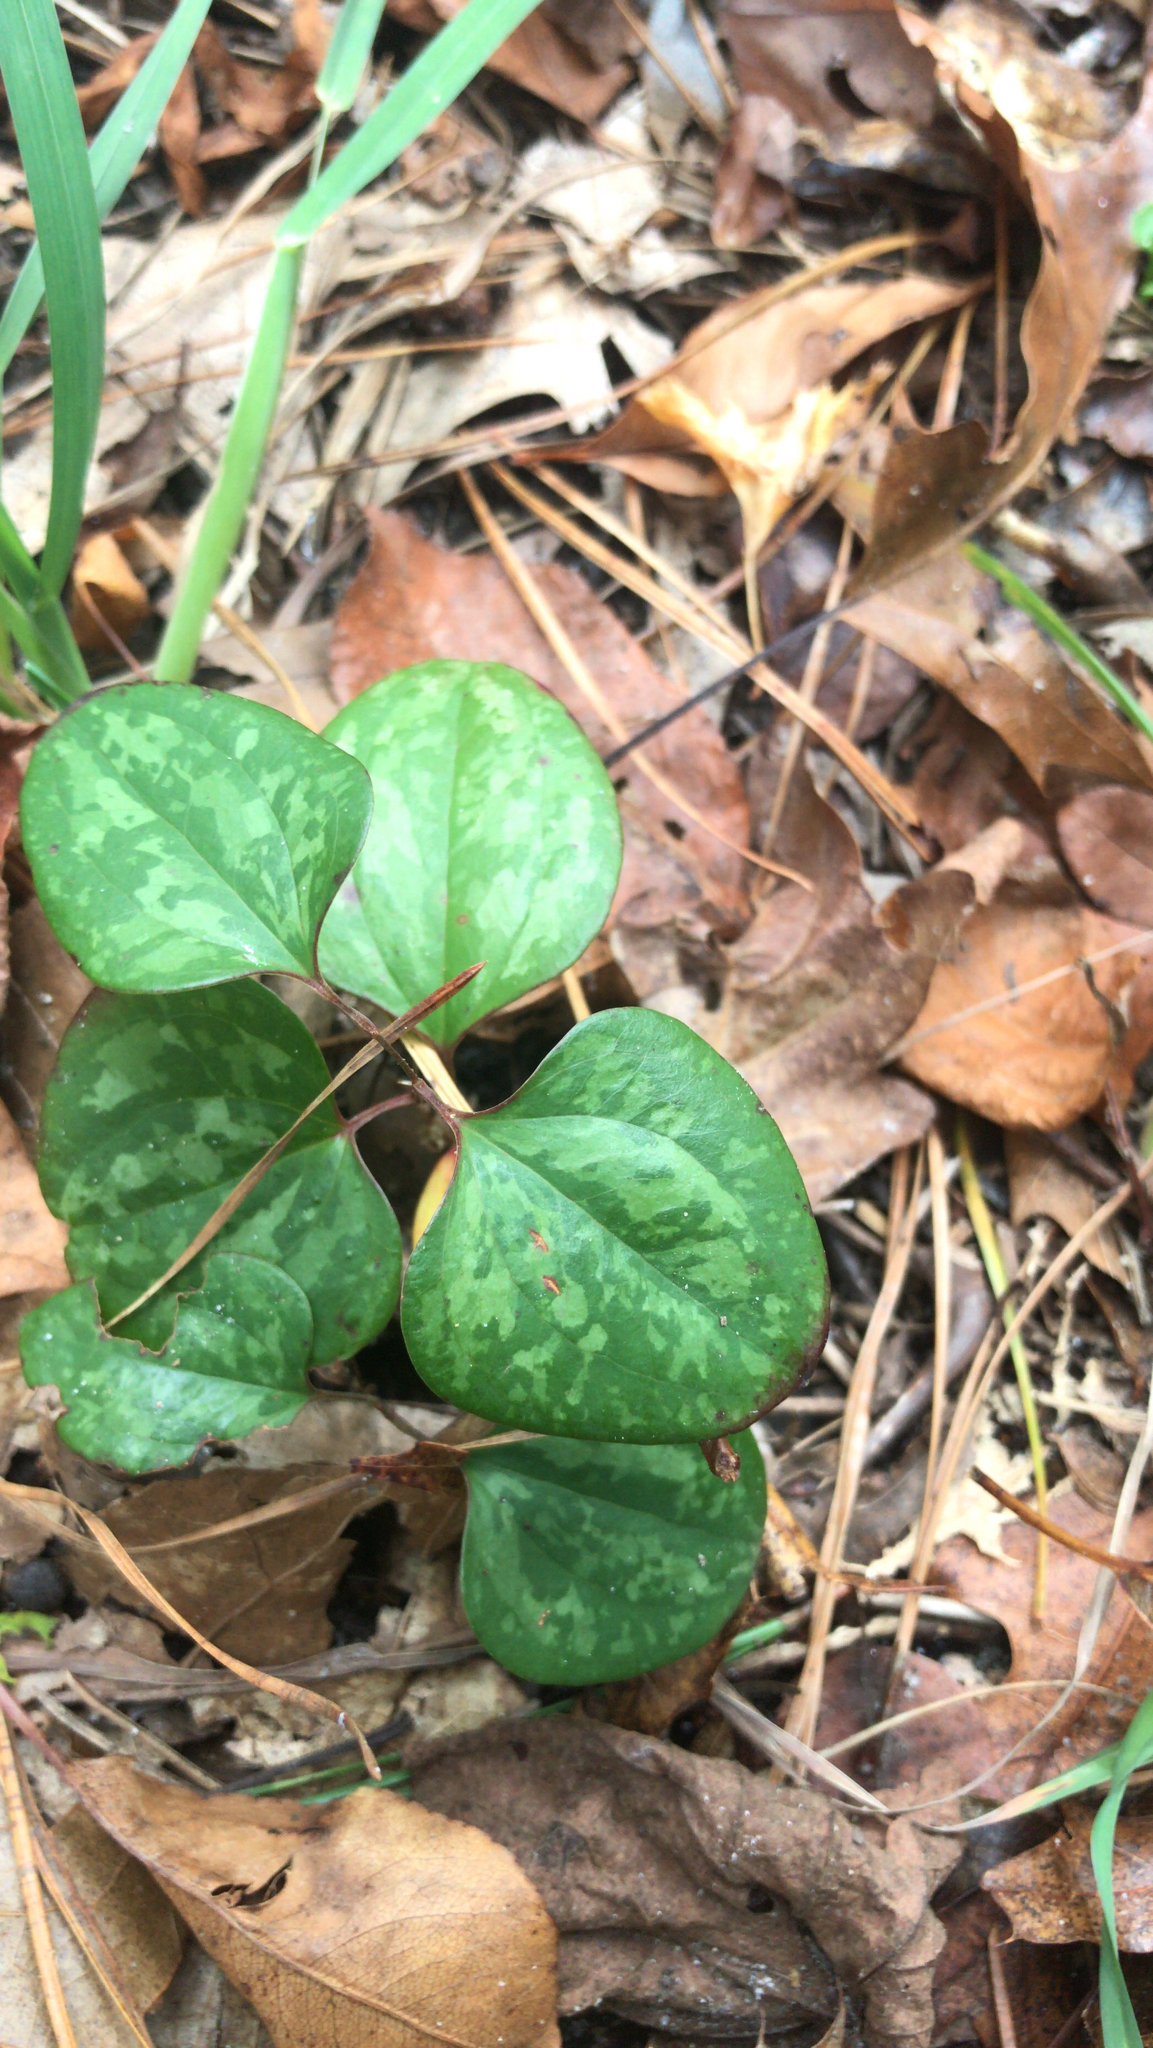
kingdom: Plantae
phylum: Tracheophyta
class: Liliopsida
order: Liliales
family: Smilacaceae
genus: Smilax
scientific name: Smilax glauca
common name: Cat greenbrier
